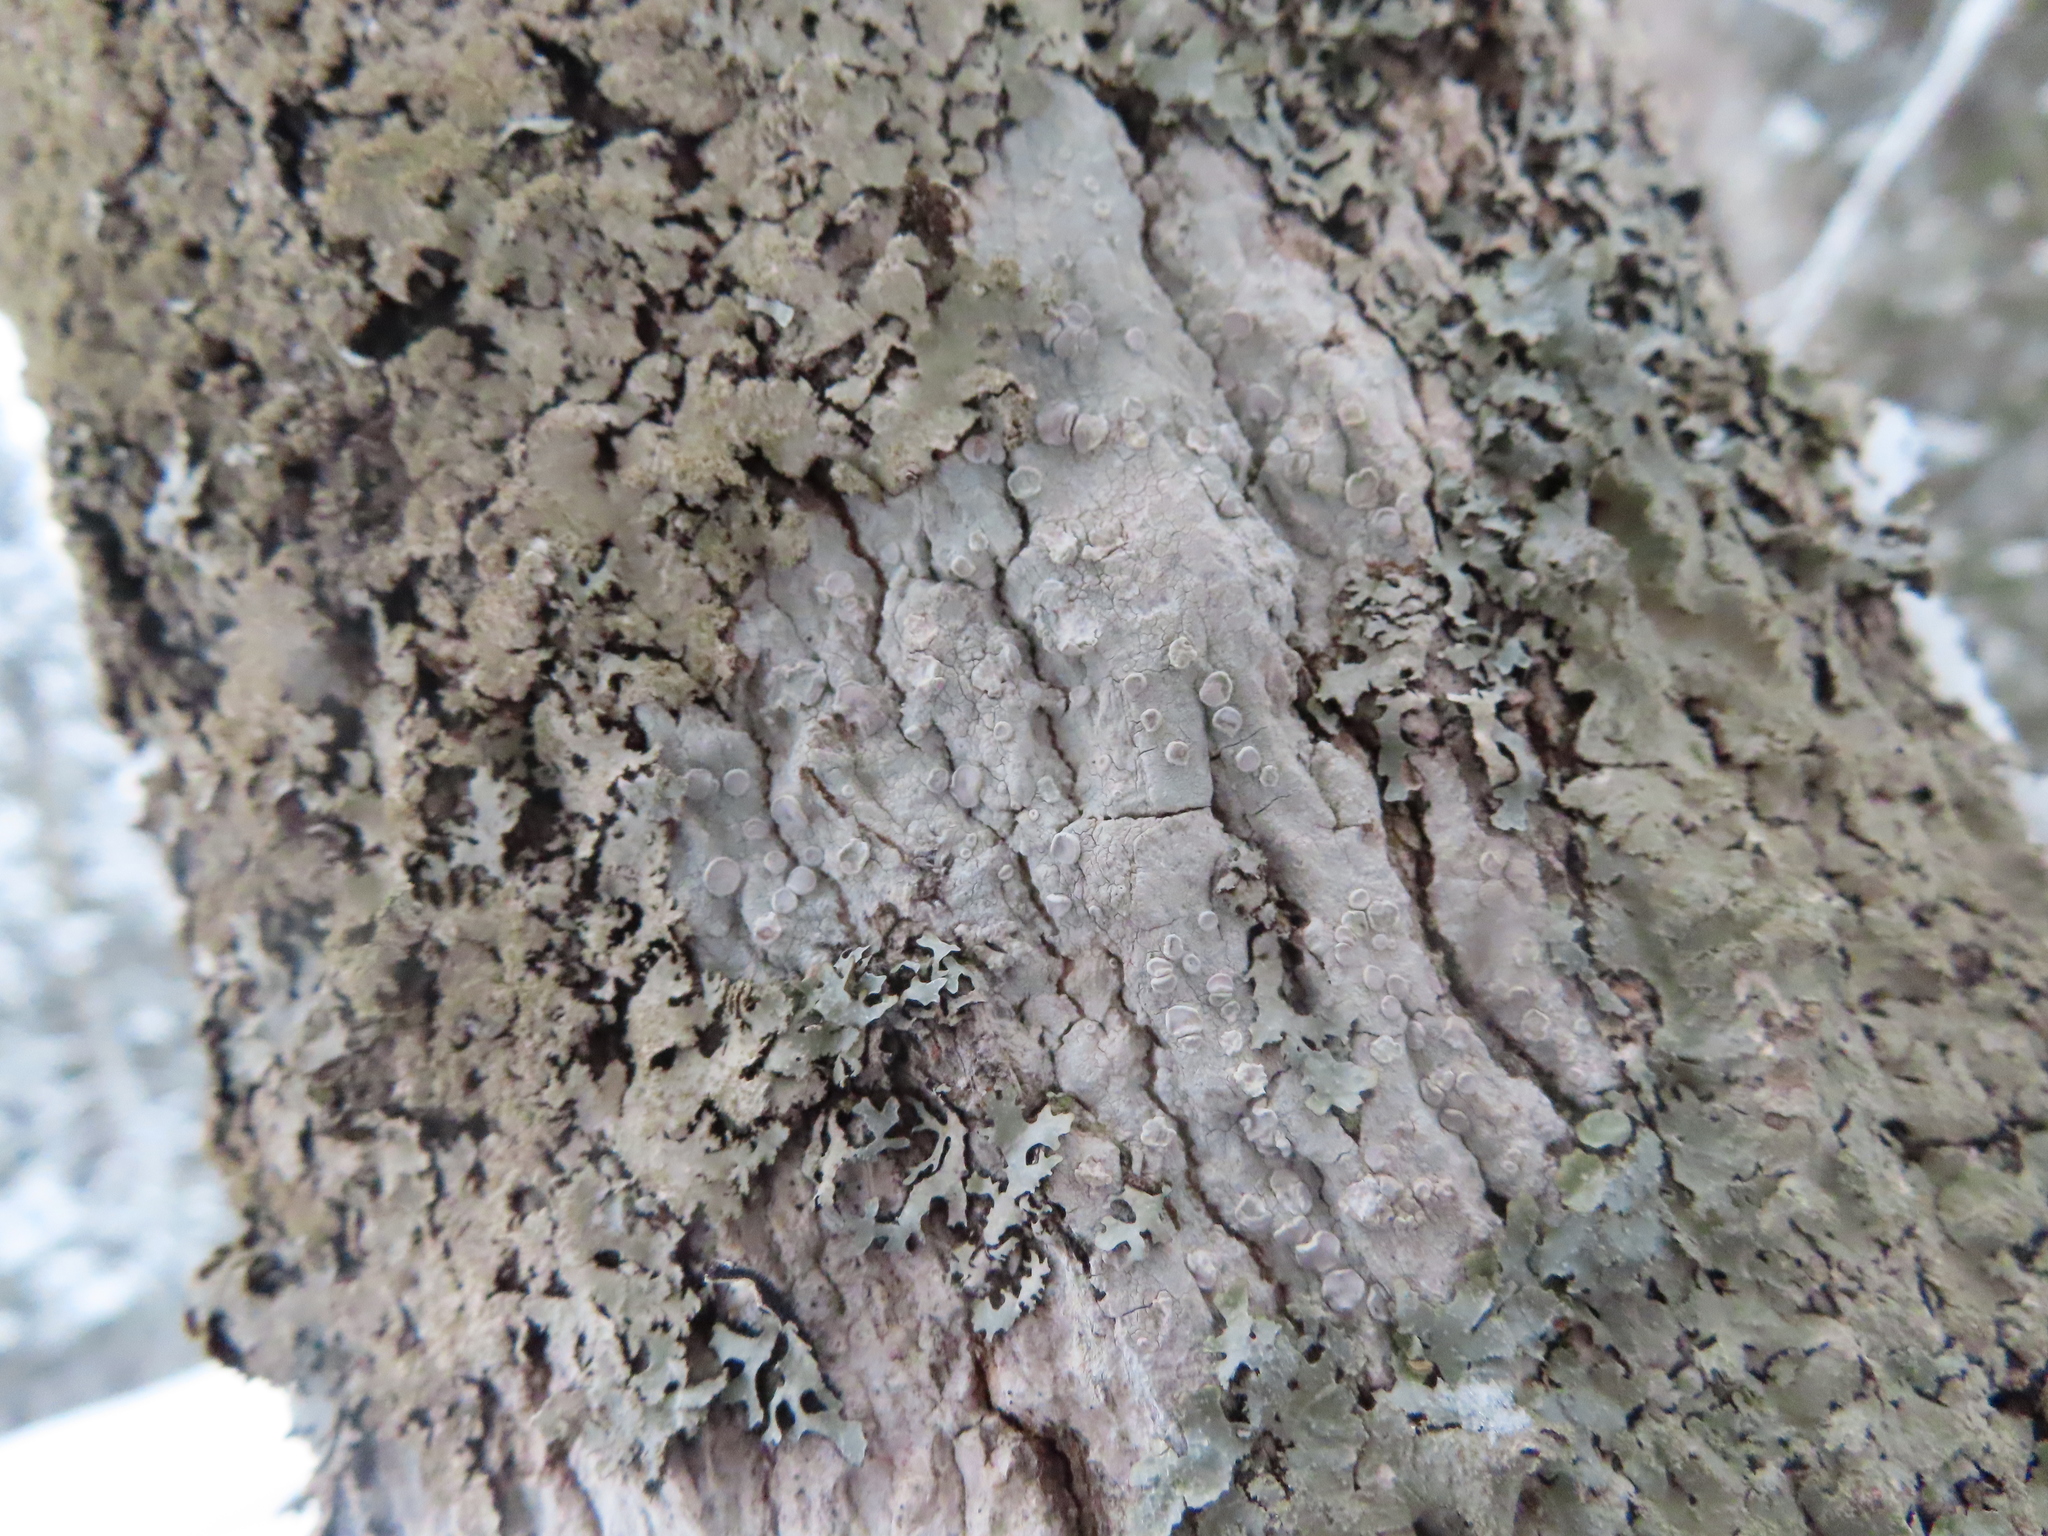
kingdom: Fungi
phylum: Ascomycota
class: Lecanoromycetes
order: Lecanorales
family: Parmeliaceae
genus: Imshaugia
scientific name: Imshaugia aleurites
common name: Salted starburst lichen
